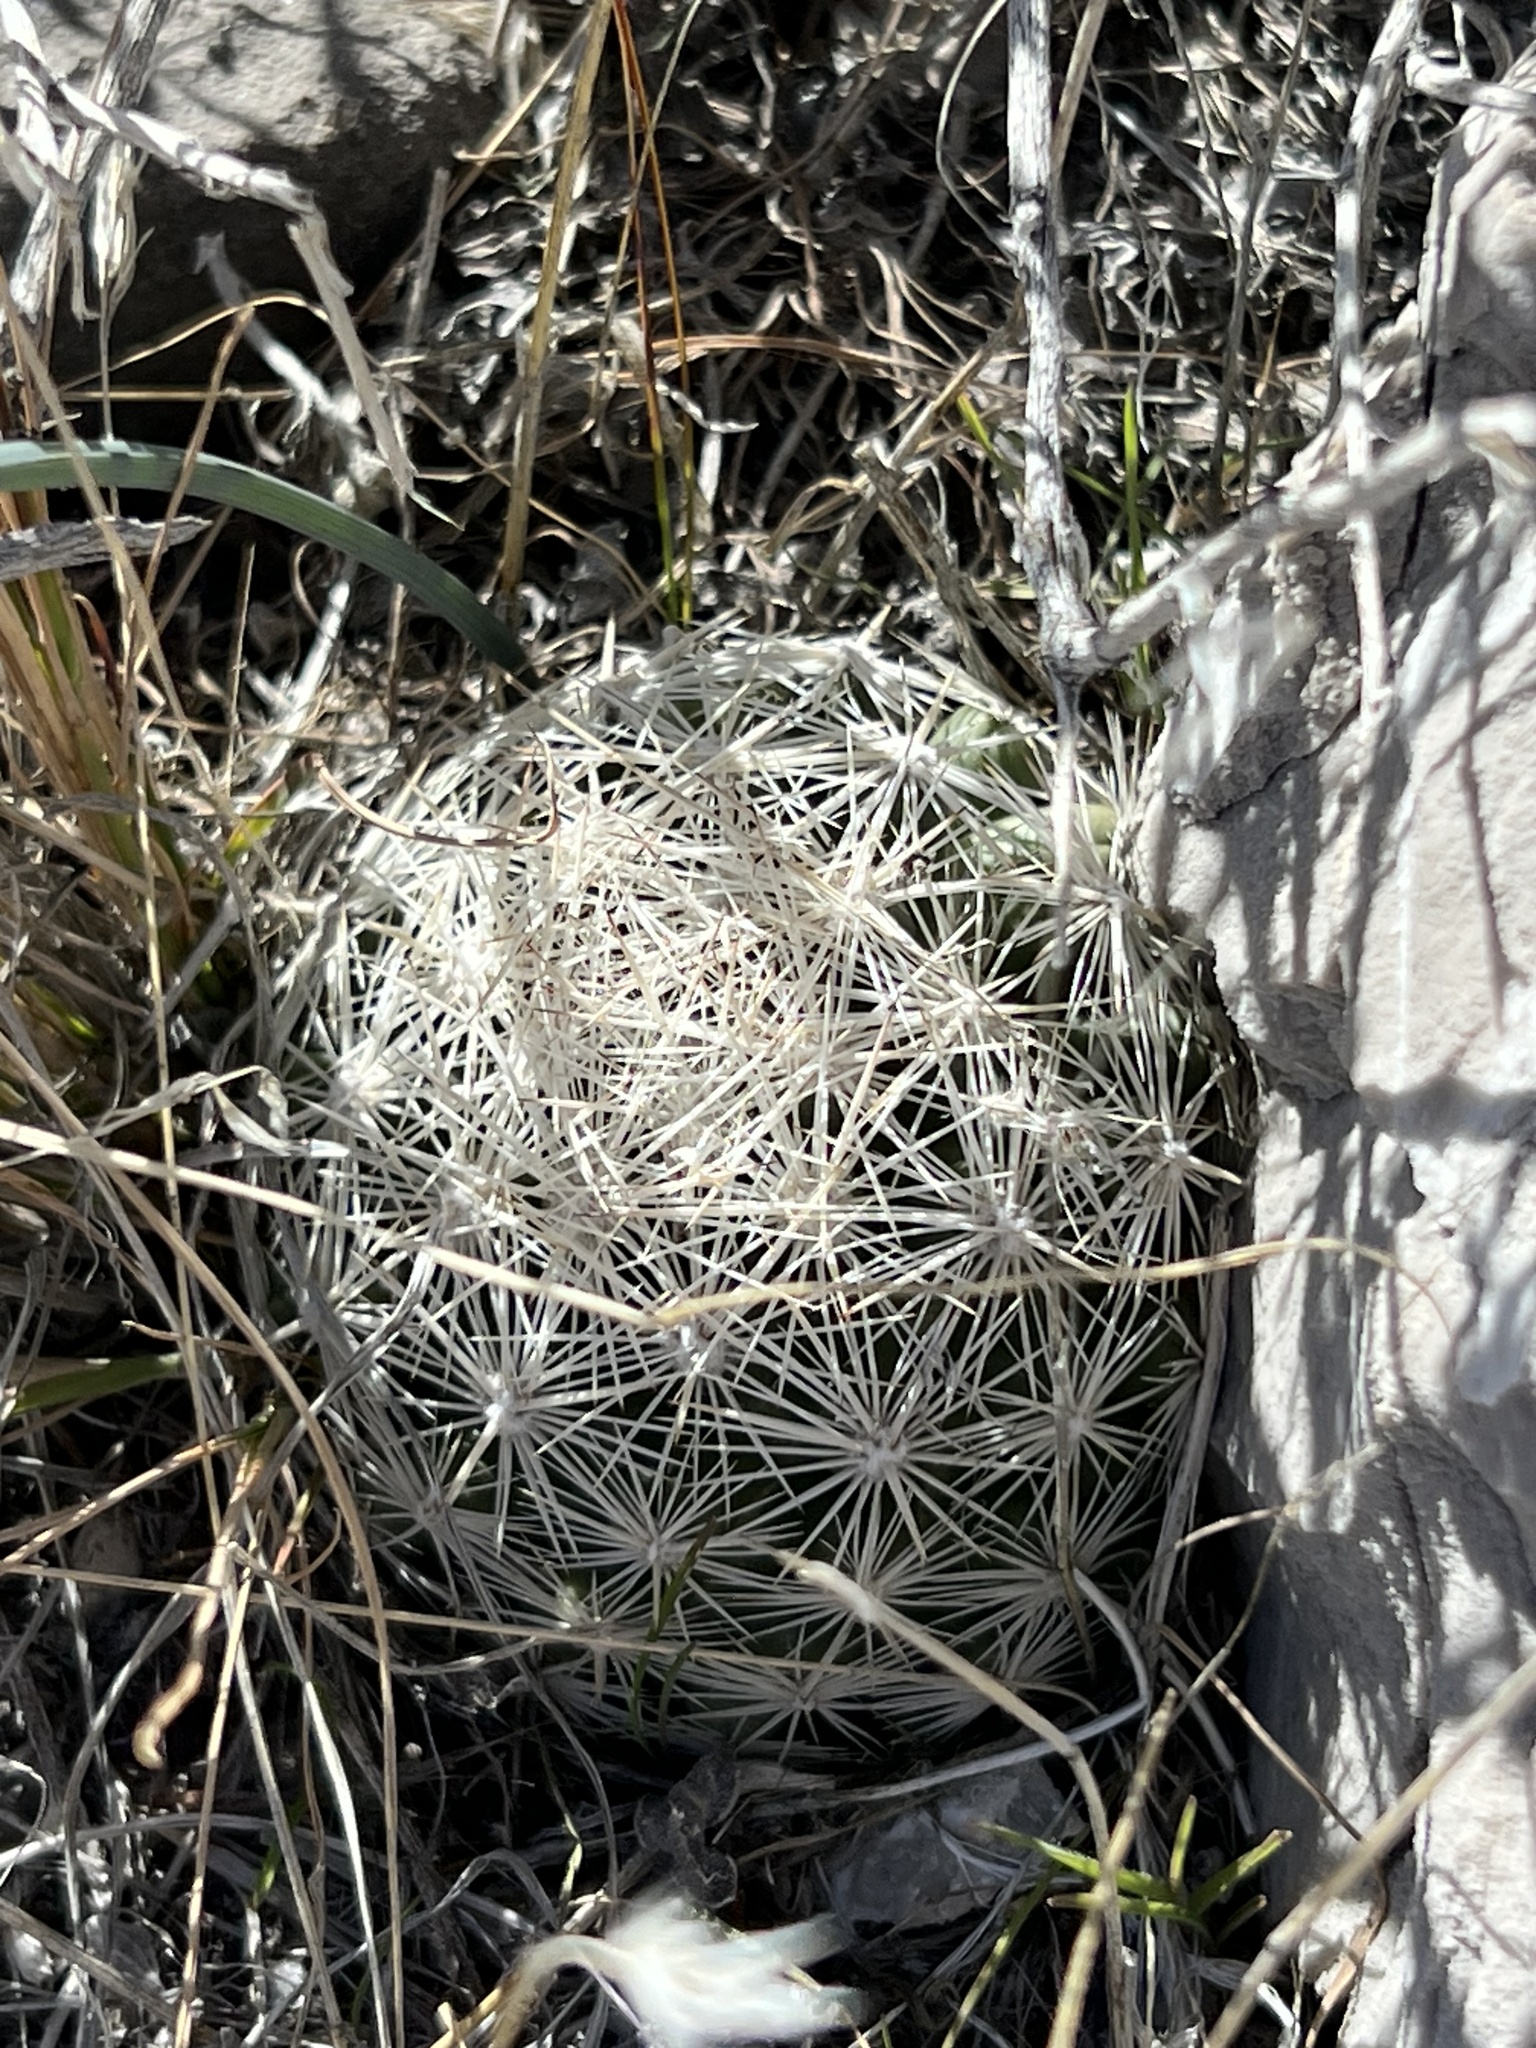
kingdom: Plantae
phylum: Tracheophyta
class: Magnoliopsida
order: Caryophyllales
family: Cactaceae
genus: Pelecyphora
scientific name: Pelecyphora dasyacantha
